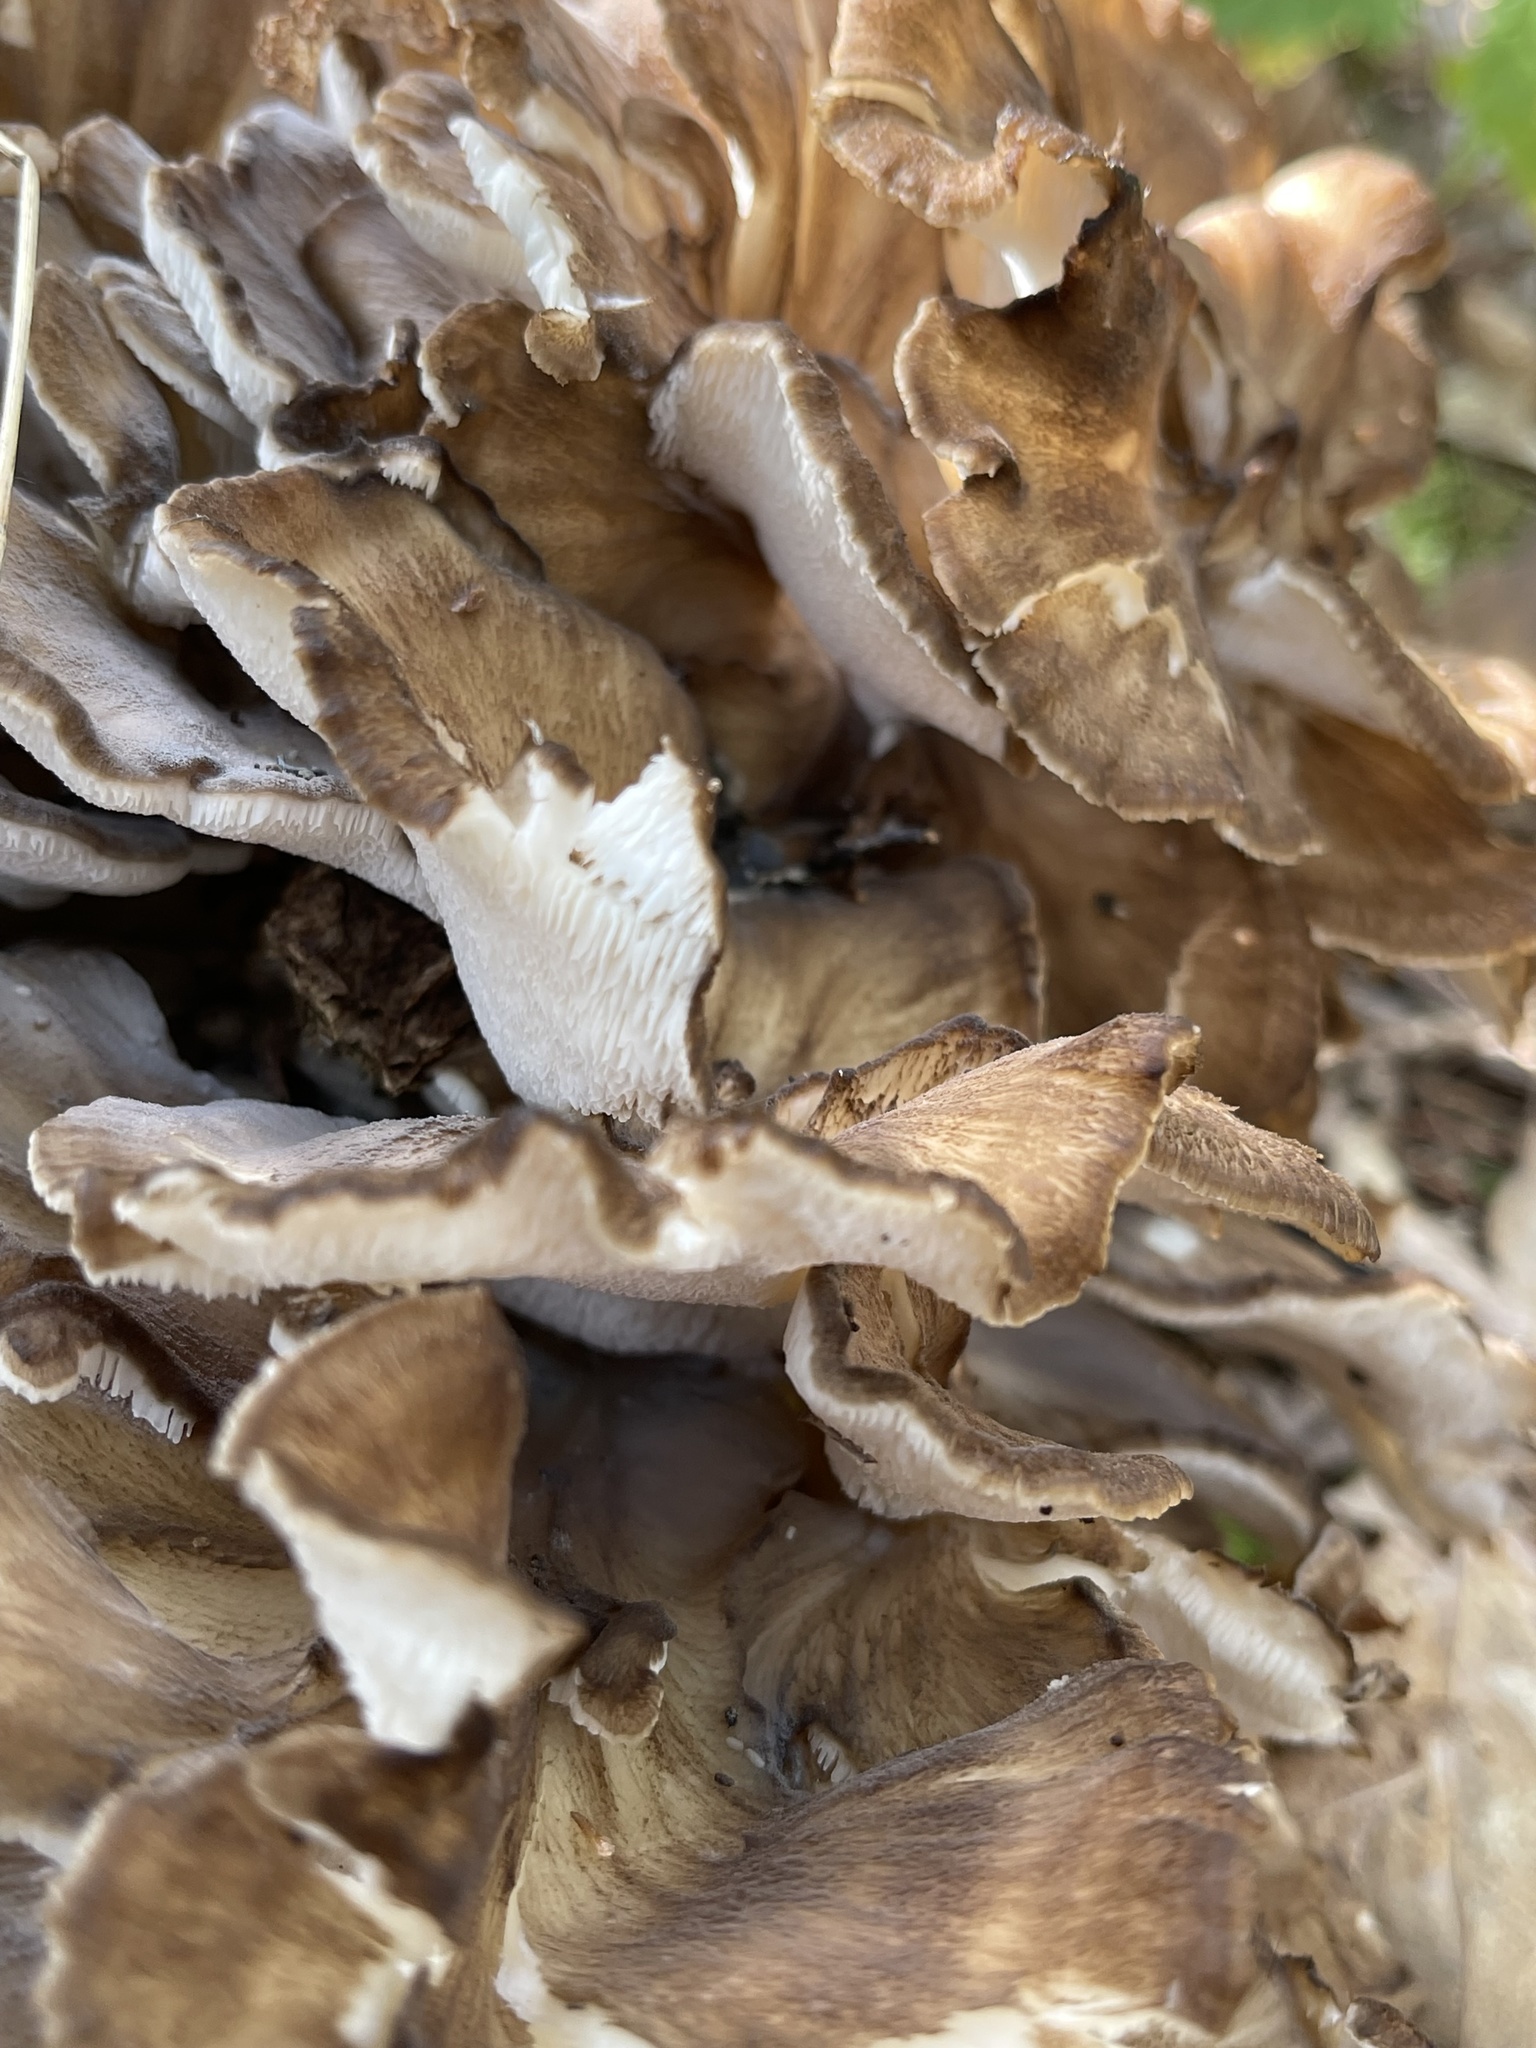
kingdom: Fungi
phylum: Basidiomycota
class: Agaricomycetes
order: Polyporales
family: Grifolaceae
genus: Grifola
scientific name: Grifola frondosa
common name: Hen of the woods
